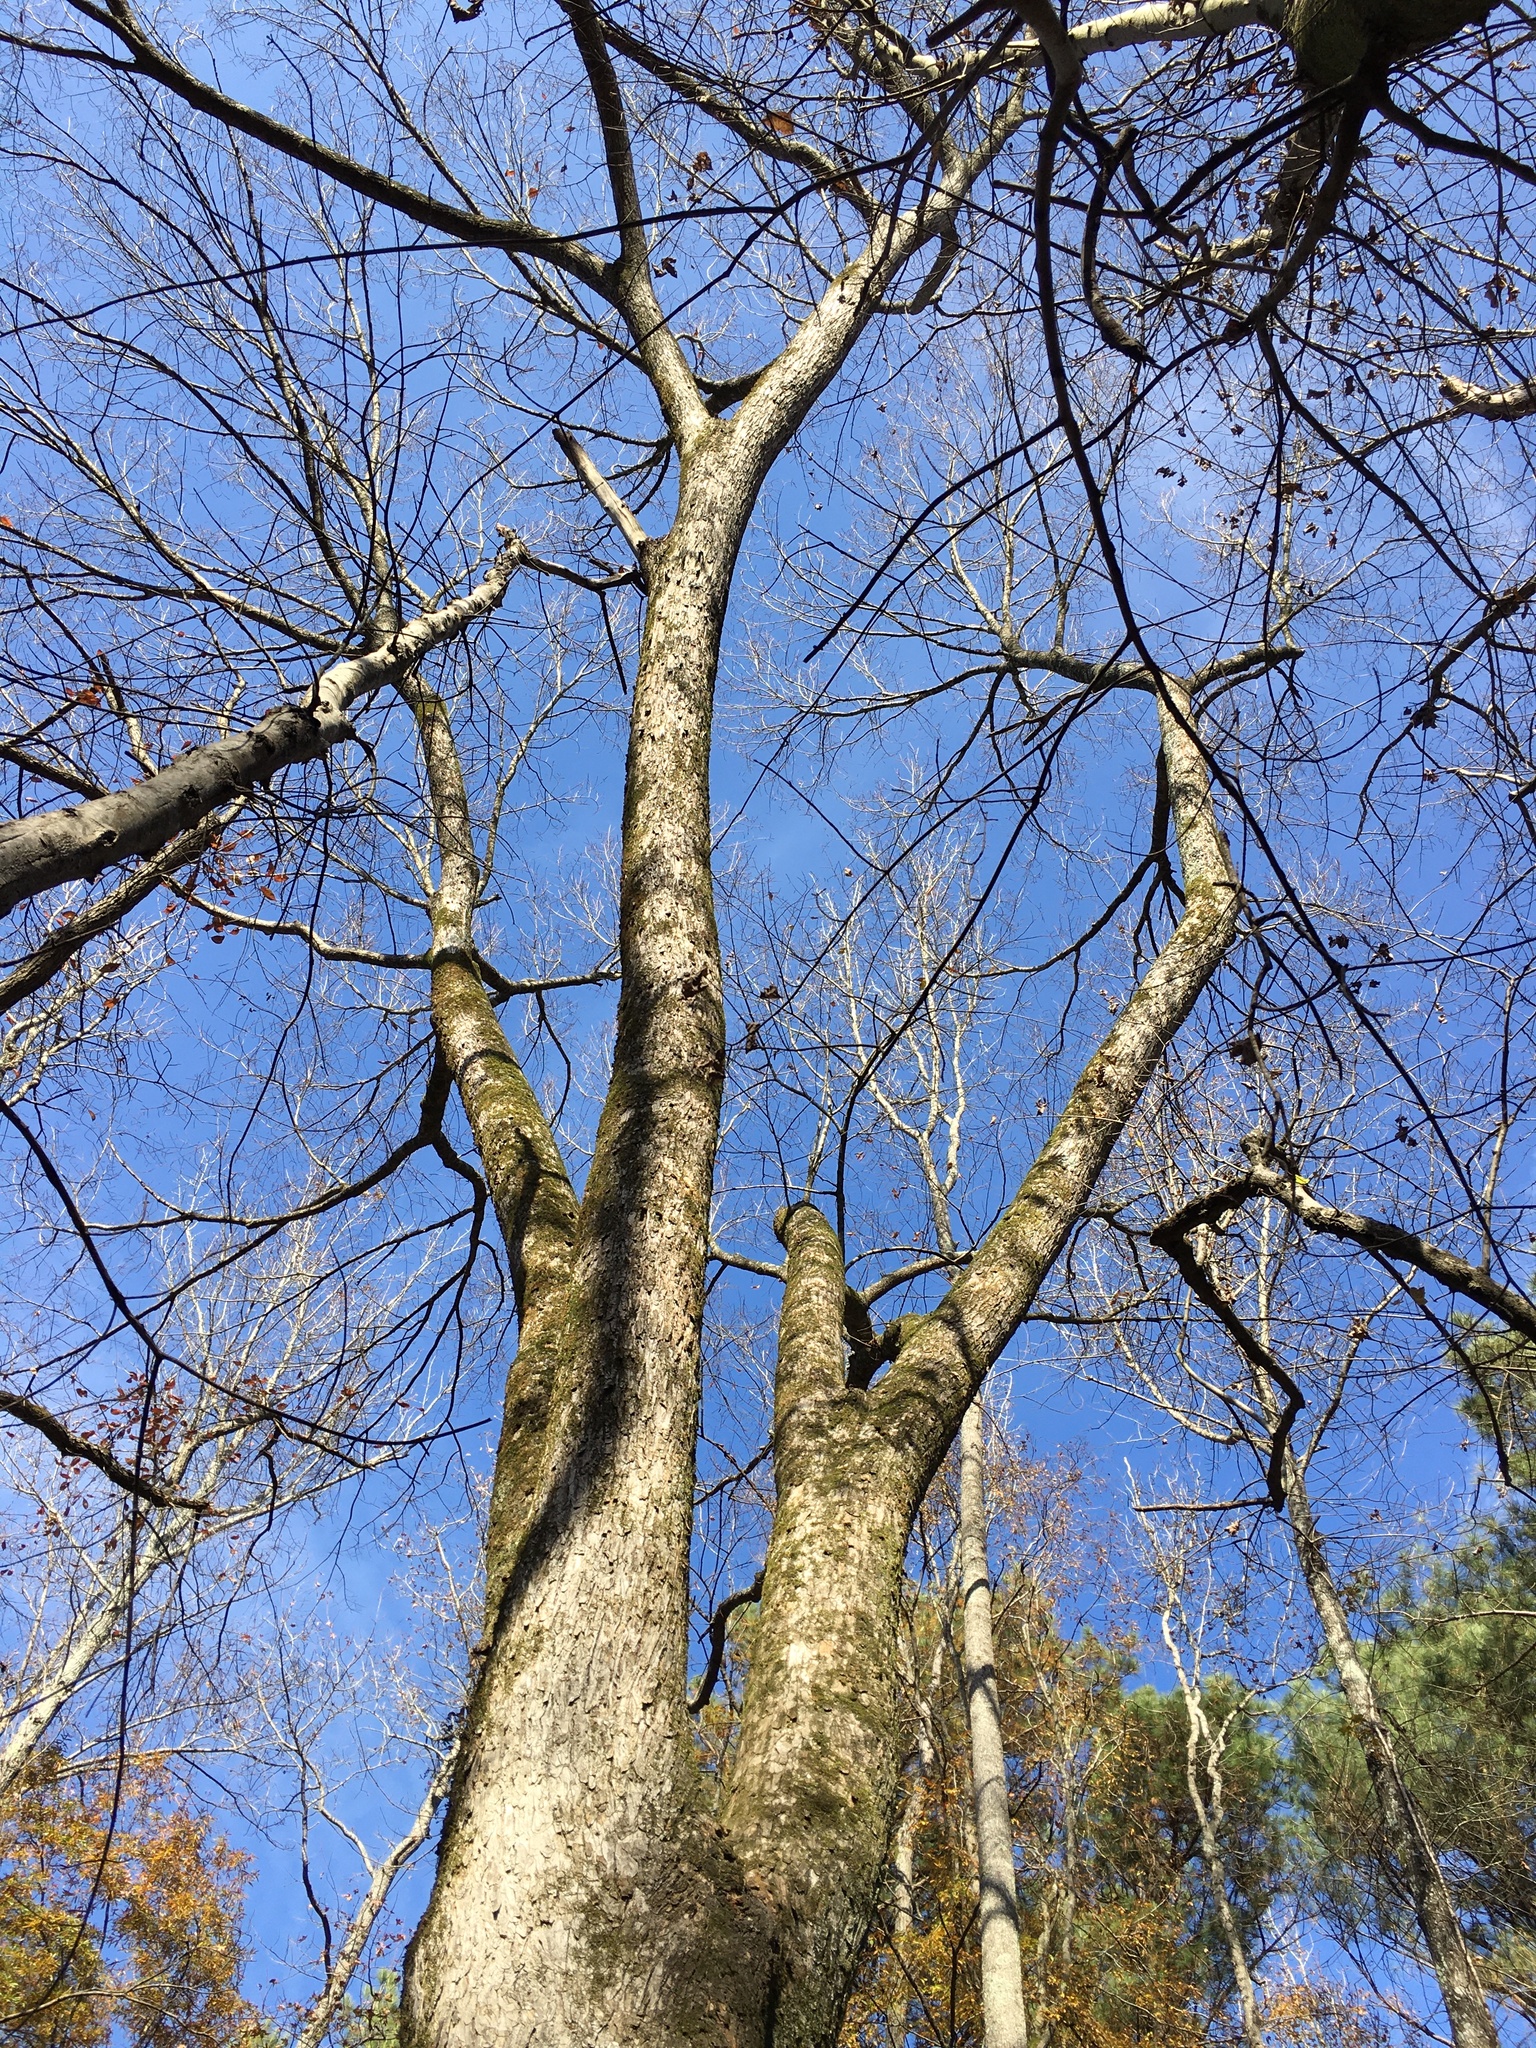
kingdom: Plantae
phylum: Tracheophyta
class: Magnoliopsida
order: Rosales
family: Ulmaceae
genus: Ulmus
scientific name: Ulmus americana
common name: American elm
